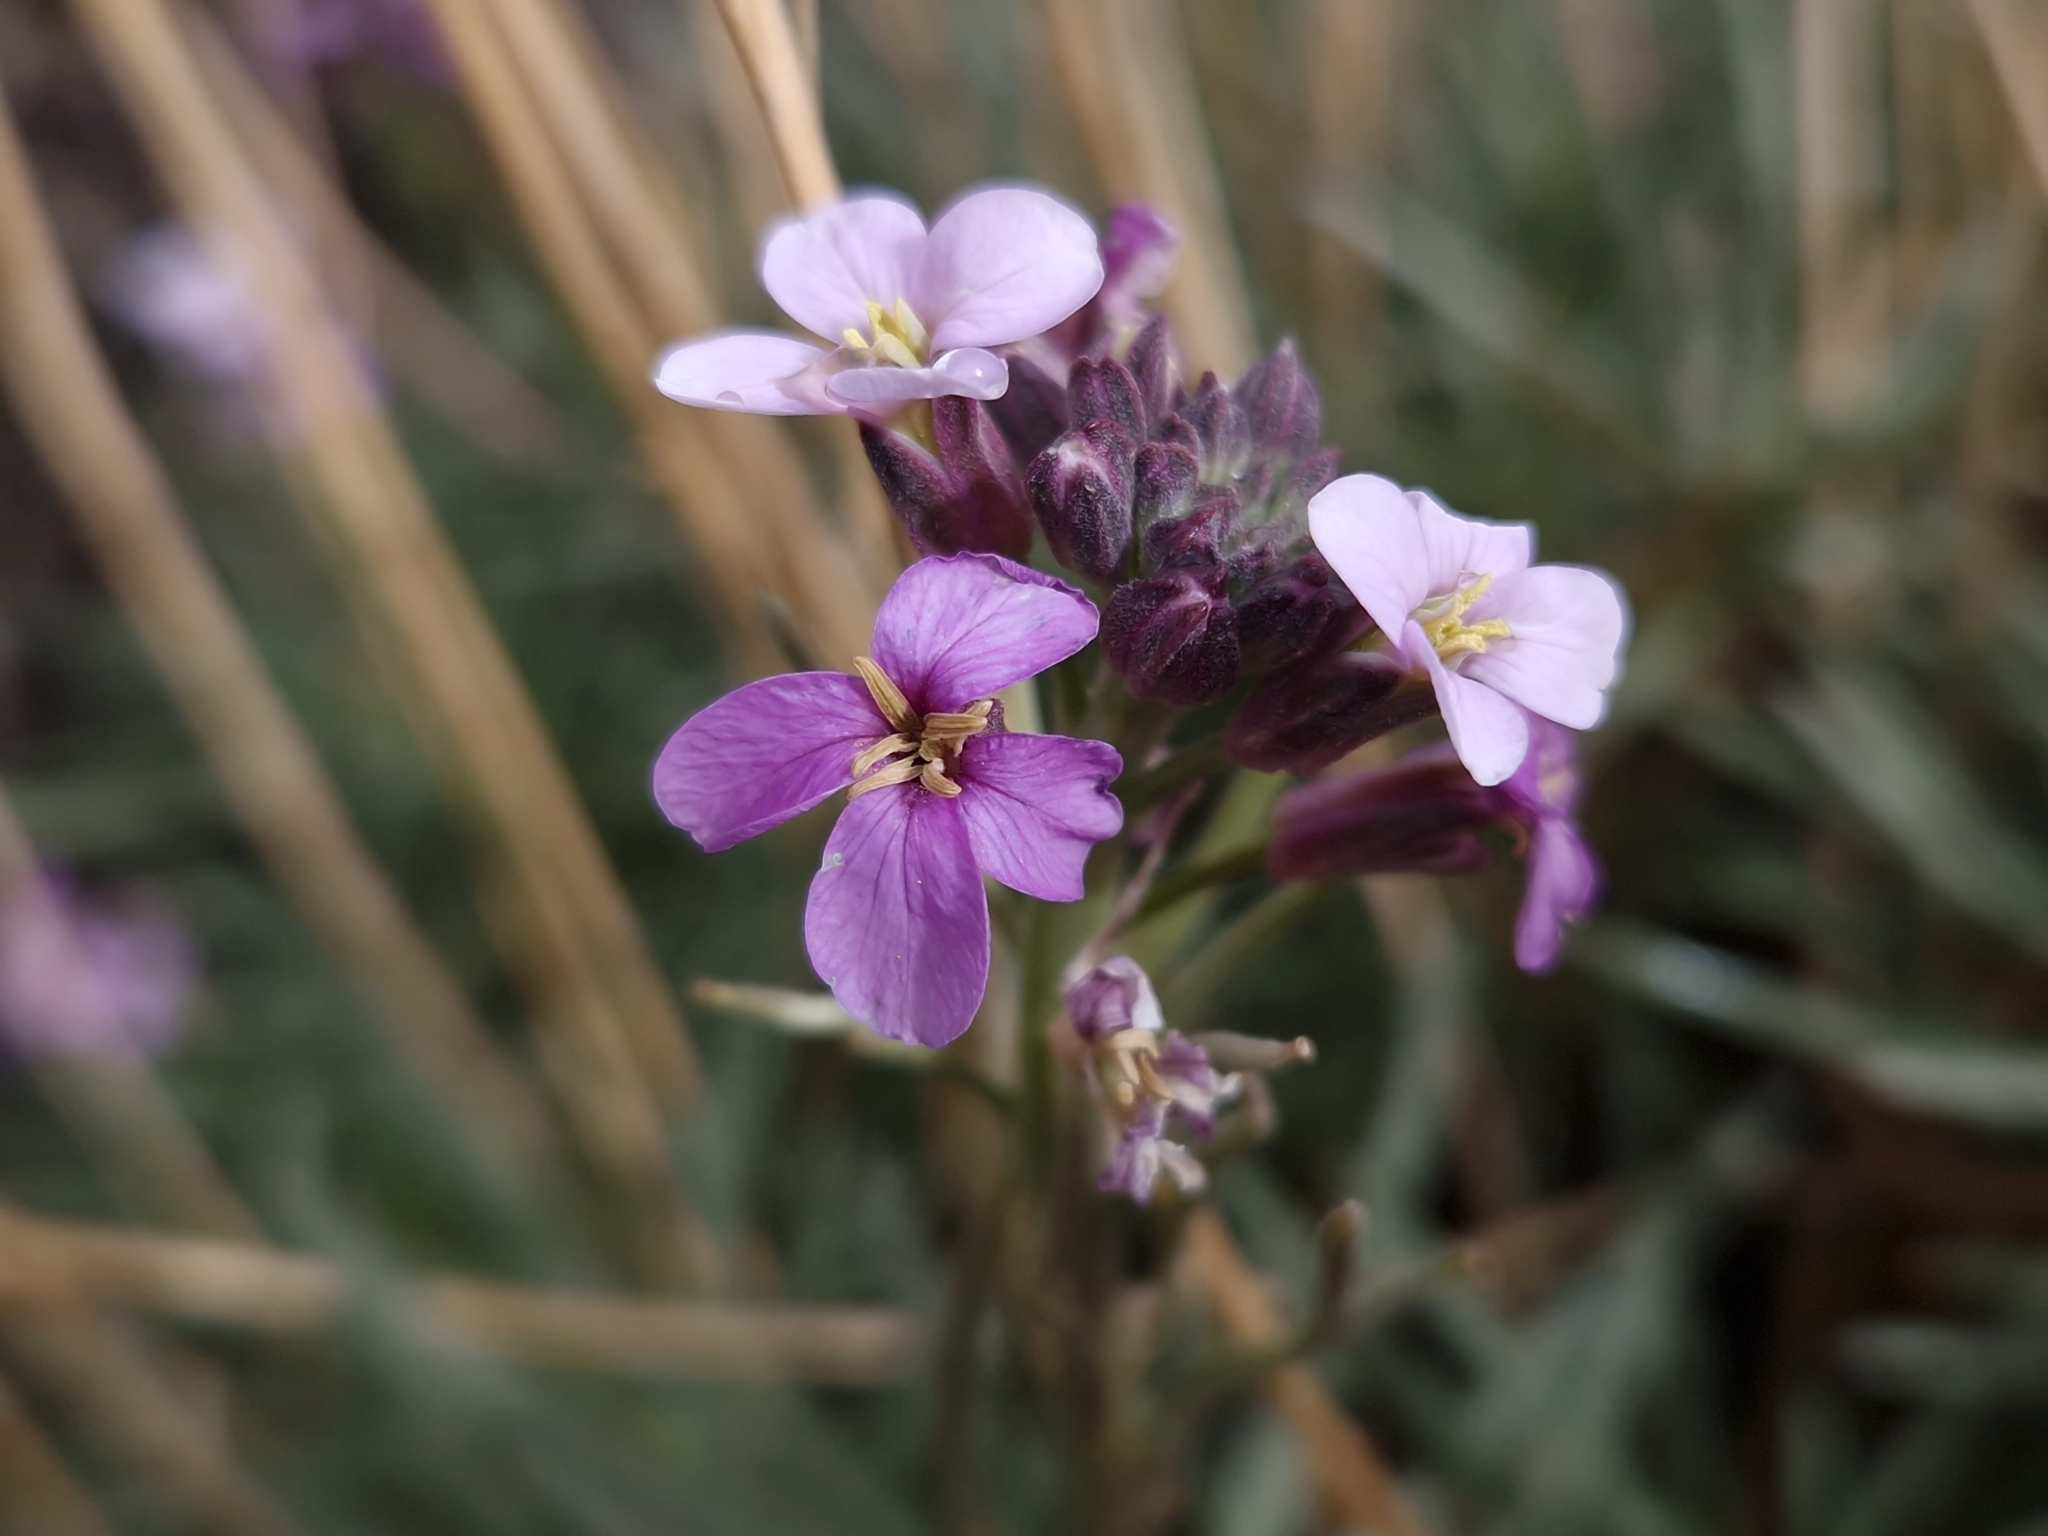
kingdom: Plantae
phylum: Tracheophyta
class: Magnoliopsida
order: Brassicales
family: Brassicaceae
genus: Erysimum
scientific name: Erysimum scoparium
